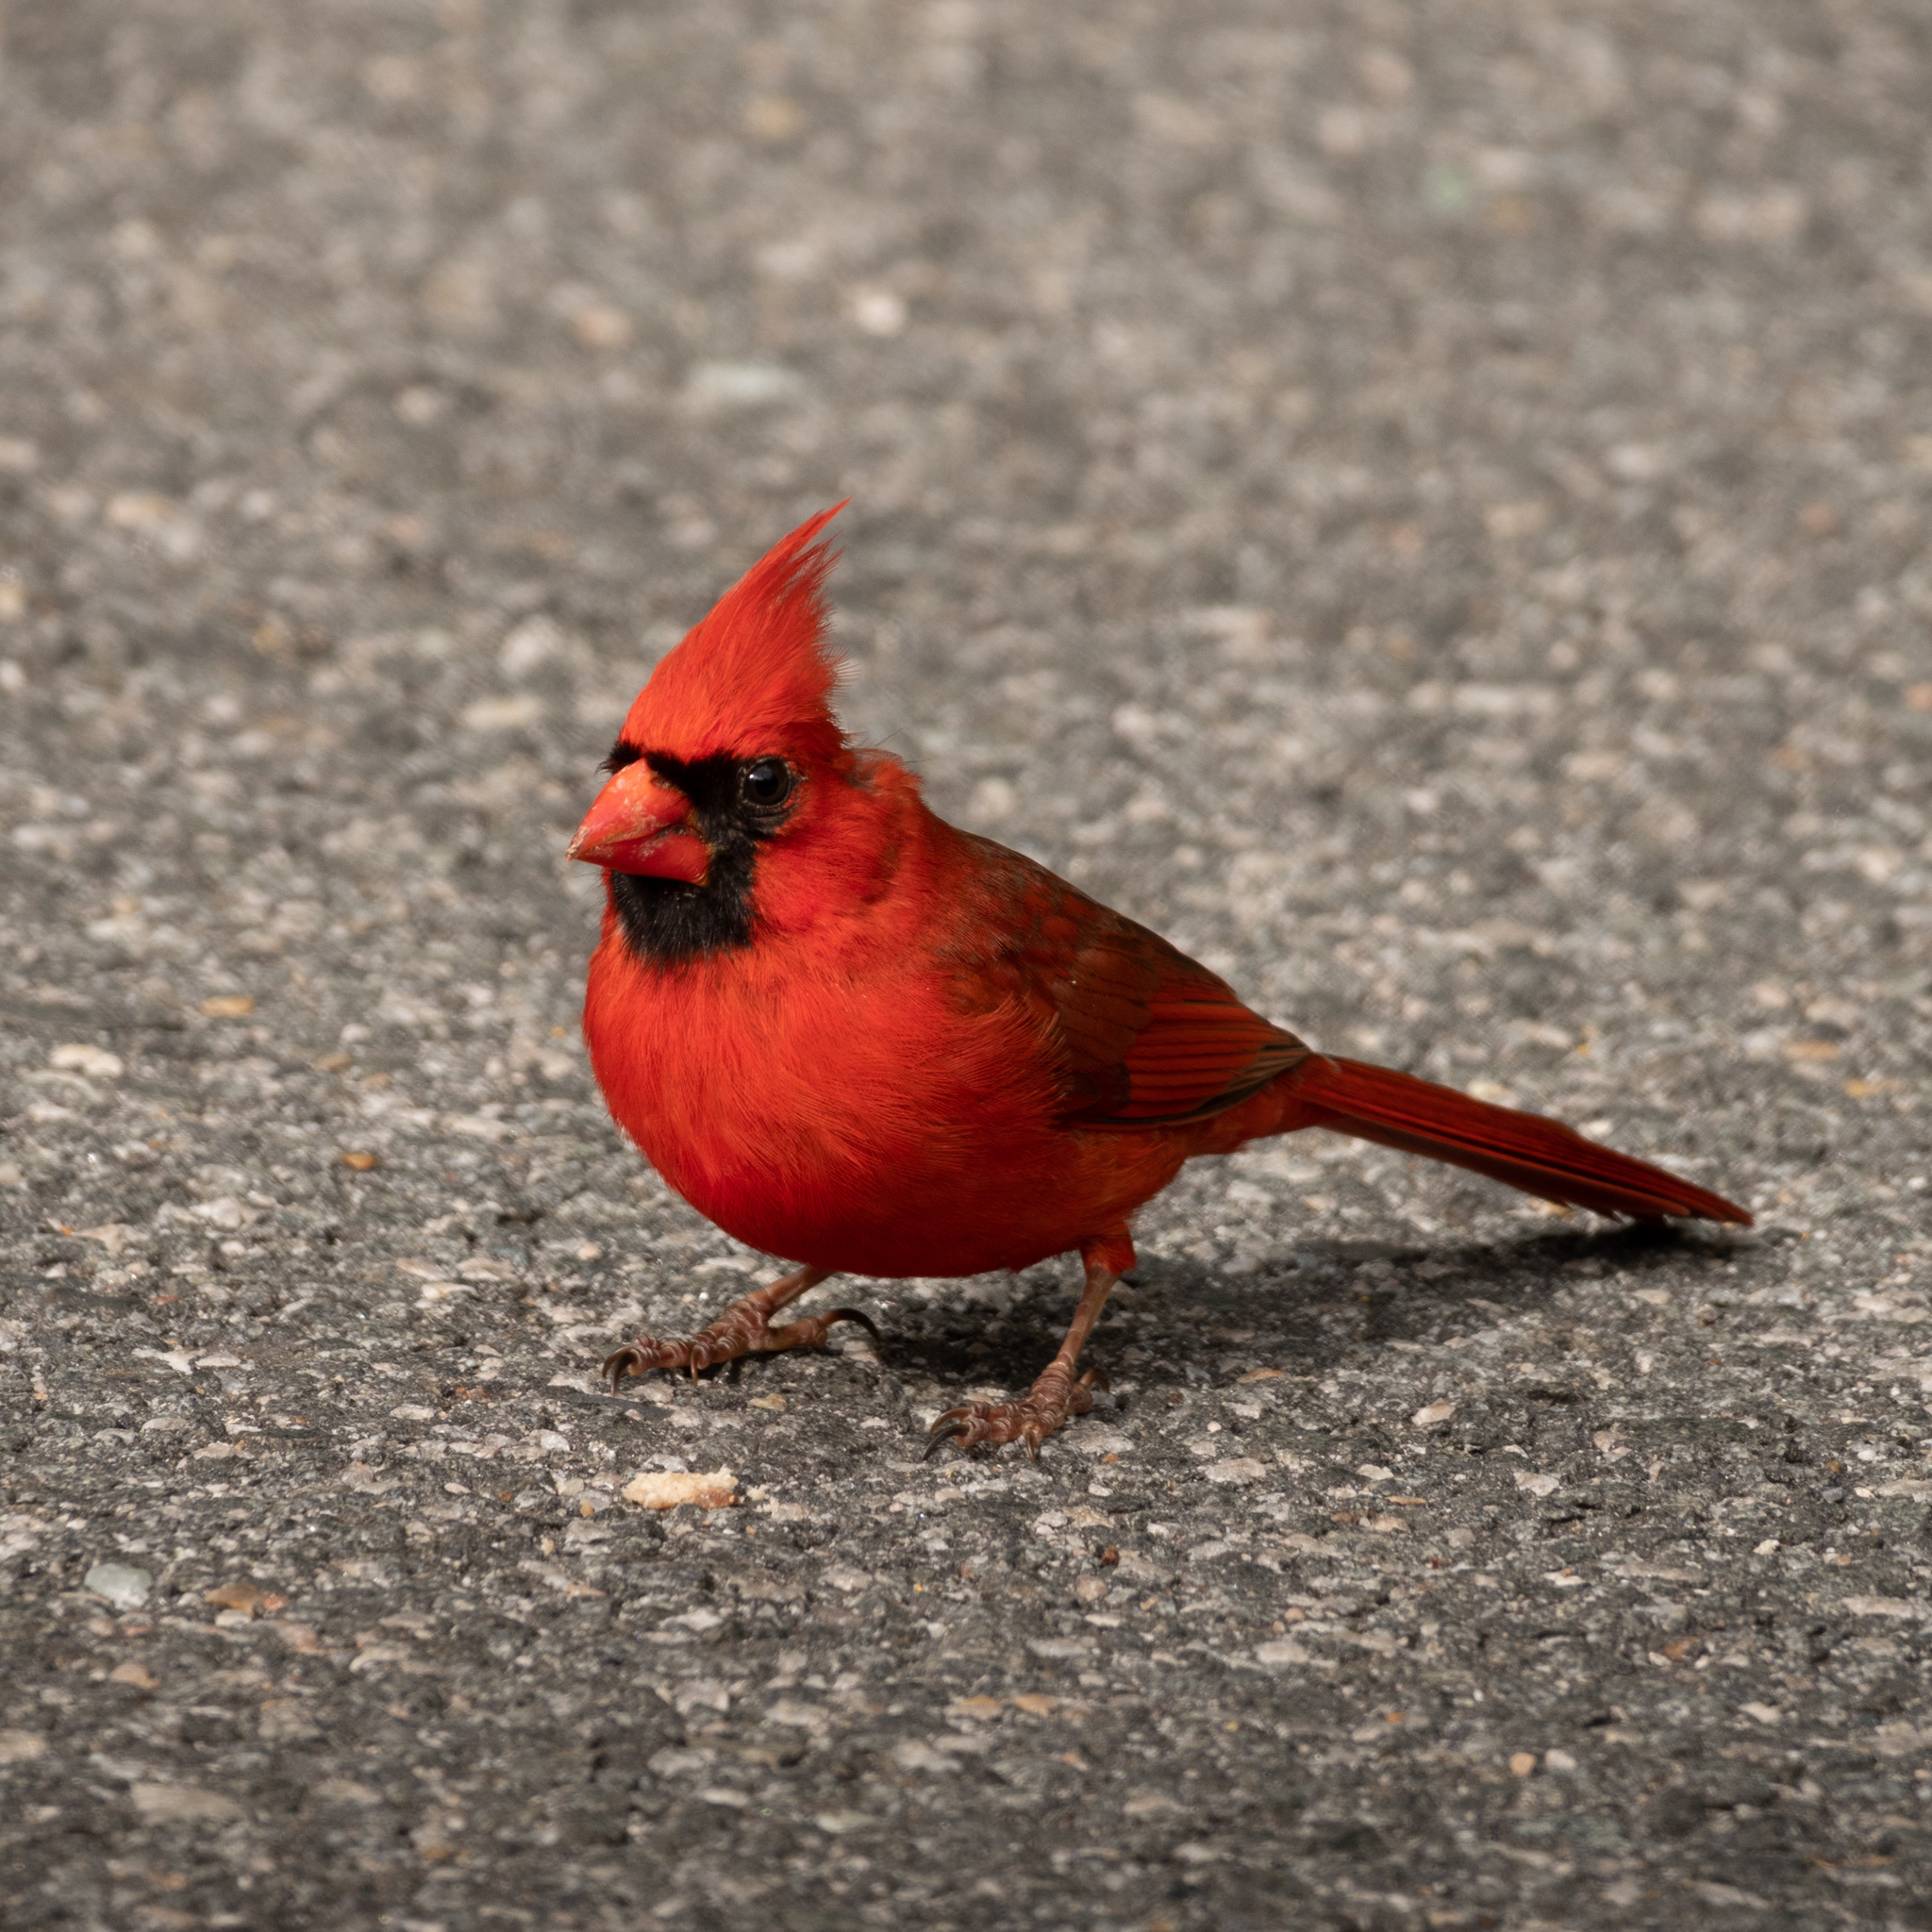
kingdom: Animalia
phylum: Chordata
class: Aves
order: Passeriformes
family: Cardinalidae
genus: Cardinalis
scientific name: Cardinalis cardinalis
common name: Northern cardinal
